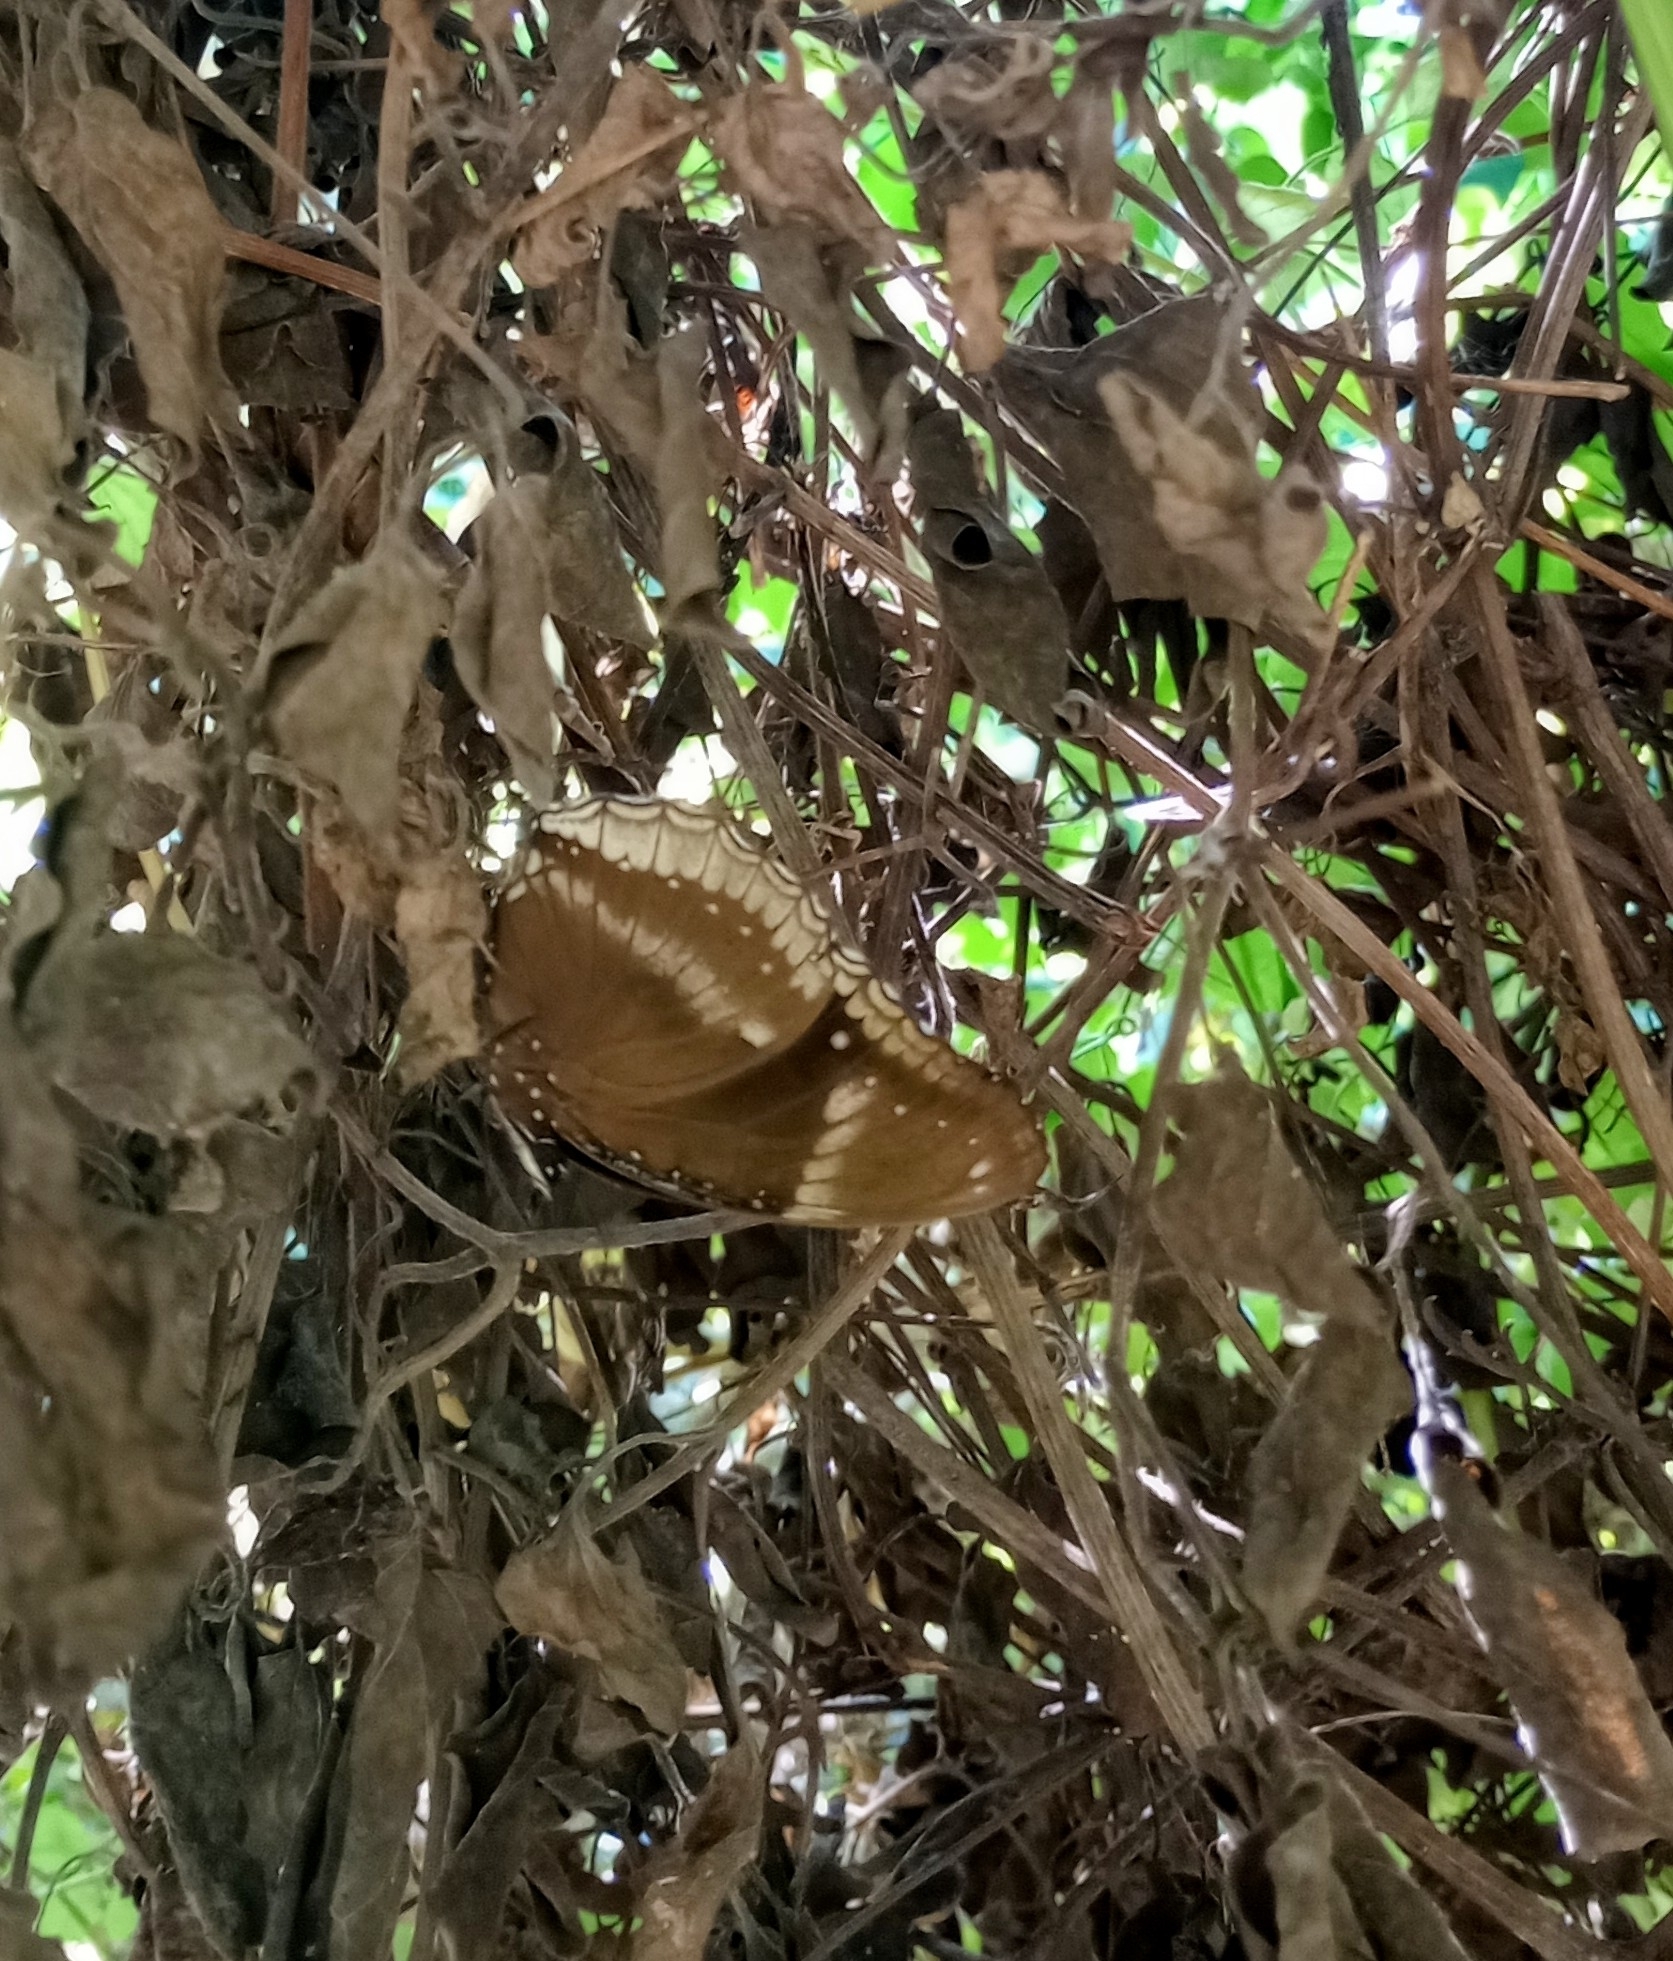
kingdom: Animalia
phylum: Arthropoda
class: Insecta
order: Lepidoptera
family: Nymphalidae
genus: Hypolimnas
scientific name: Hypolimnas bolina
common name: Great eggfly
